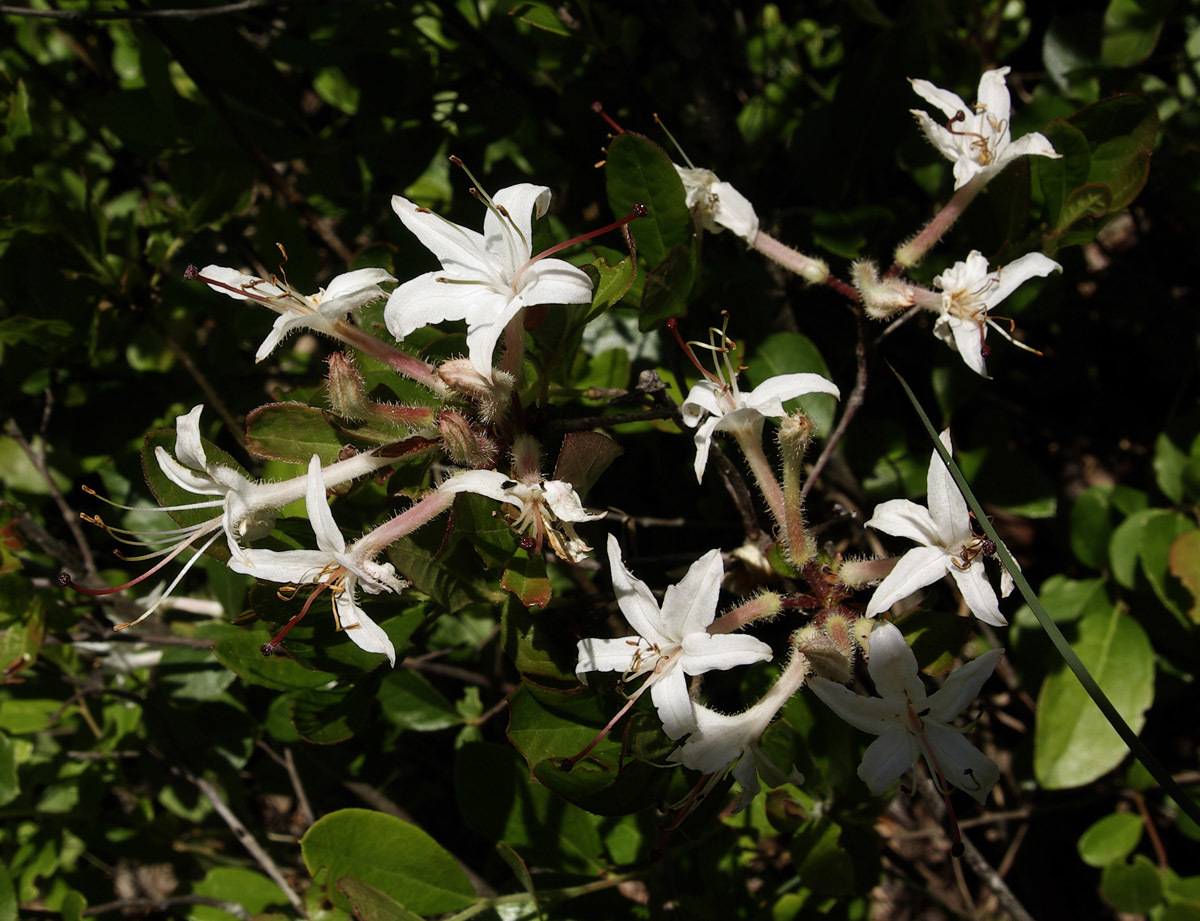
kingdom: Plantae
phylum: Tracheophyta
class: Magnoliopsida
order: Ericales
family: Ericaceae
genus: Rhododendron
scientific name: Rhododendron viscosum
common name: Clammy azalea
